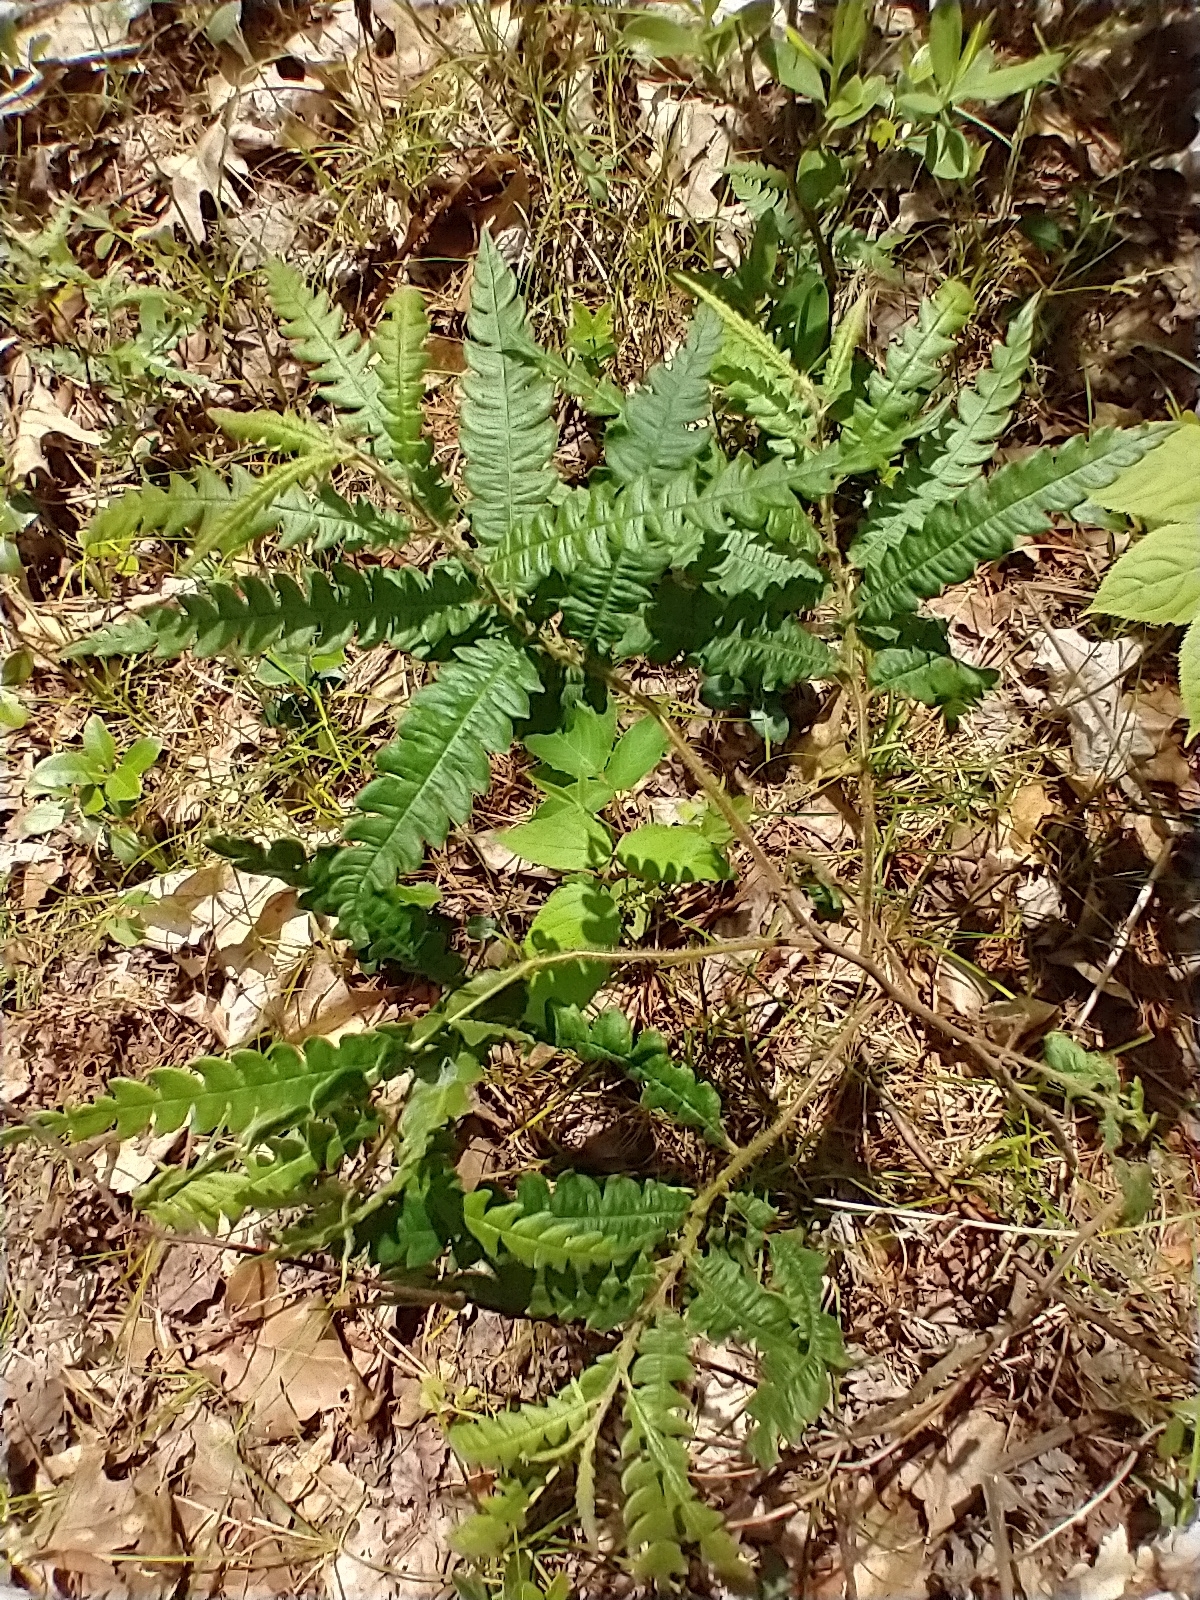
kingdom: Plantae
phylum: Tracheophyta
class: Magnoliopsida
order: Fagales
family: Myricaceae
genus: Comptonia
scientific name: Comptonia peregrina
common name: Sweet-fern
